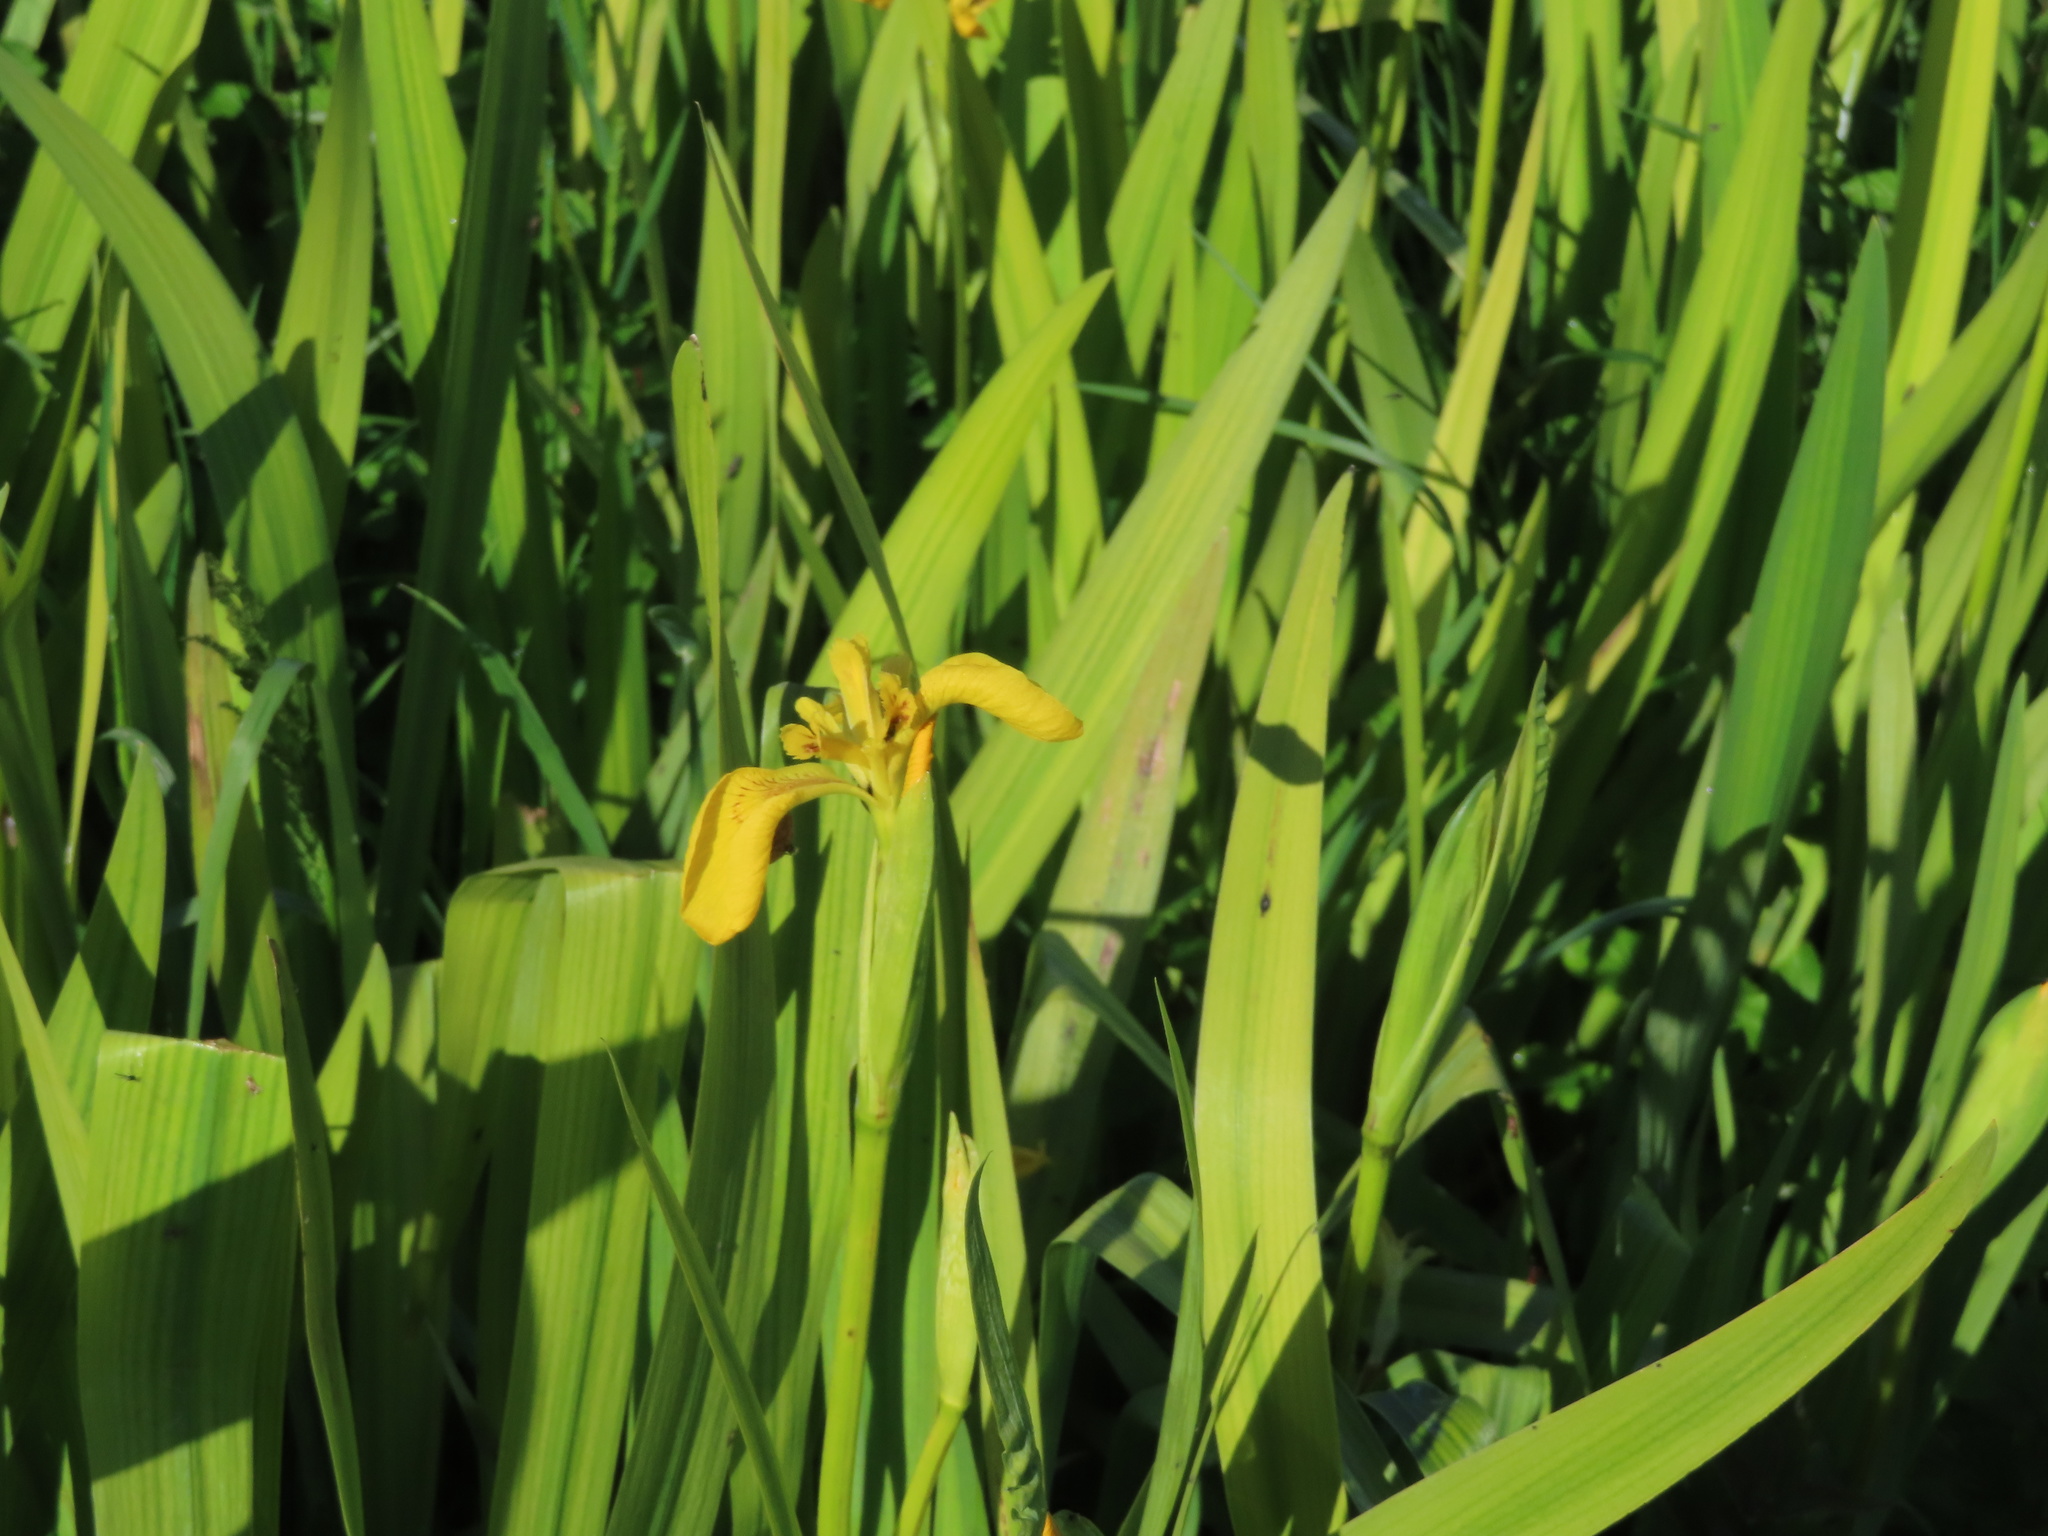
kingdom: Plantae
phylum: Tracheophyta
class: Liliopsida
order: Asparagales
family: Iridaceae
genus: Iris
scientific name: Iris pseudacorus
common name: Yellow flag
